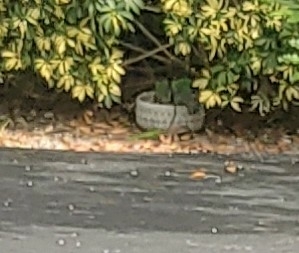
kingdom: Animalia
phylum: Chordata
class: Squamata
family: Teiidae
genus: Ameiva
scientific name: Ameiva ameiva
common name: Giant ameiva
